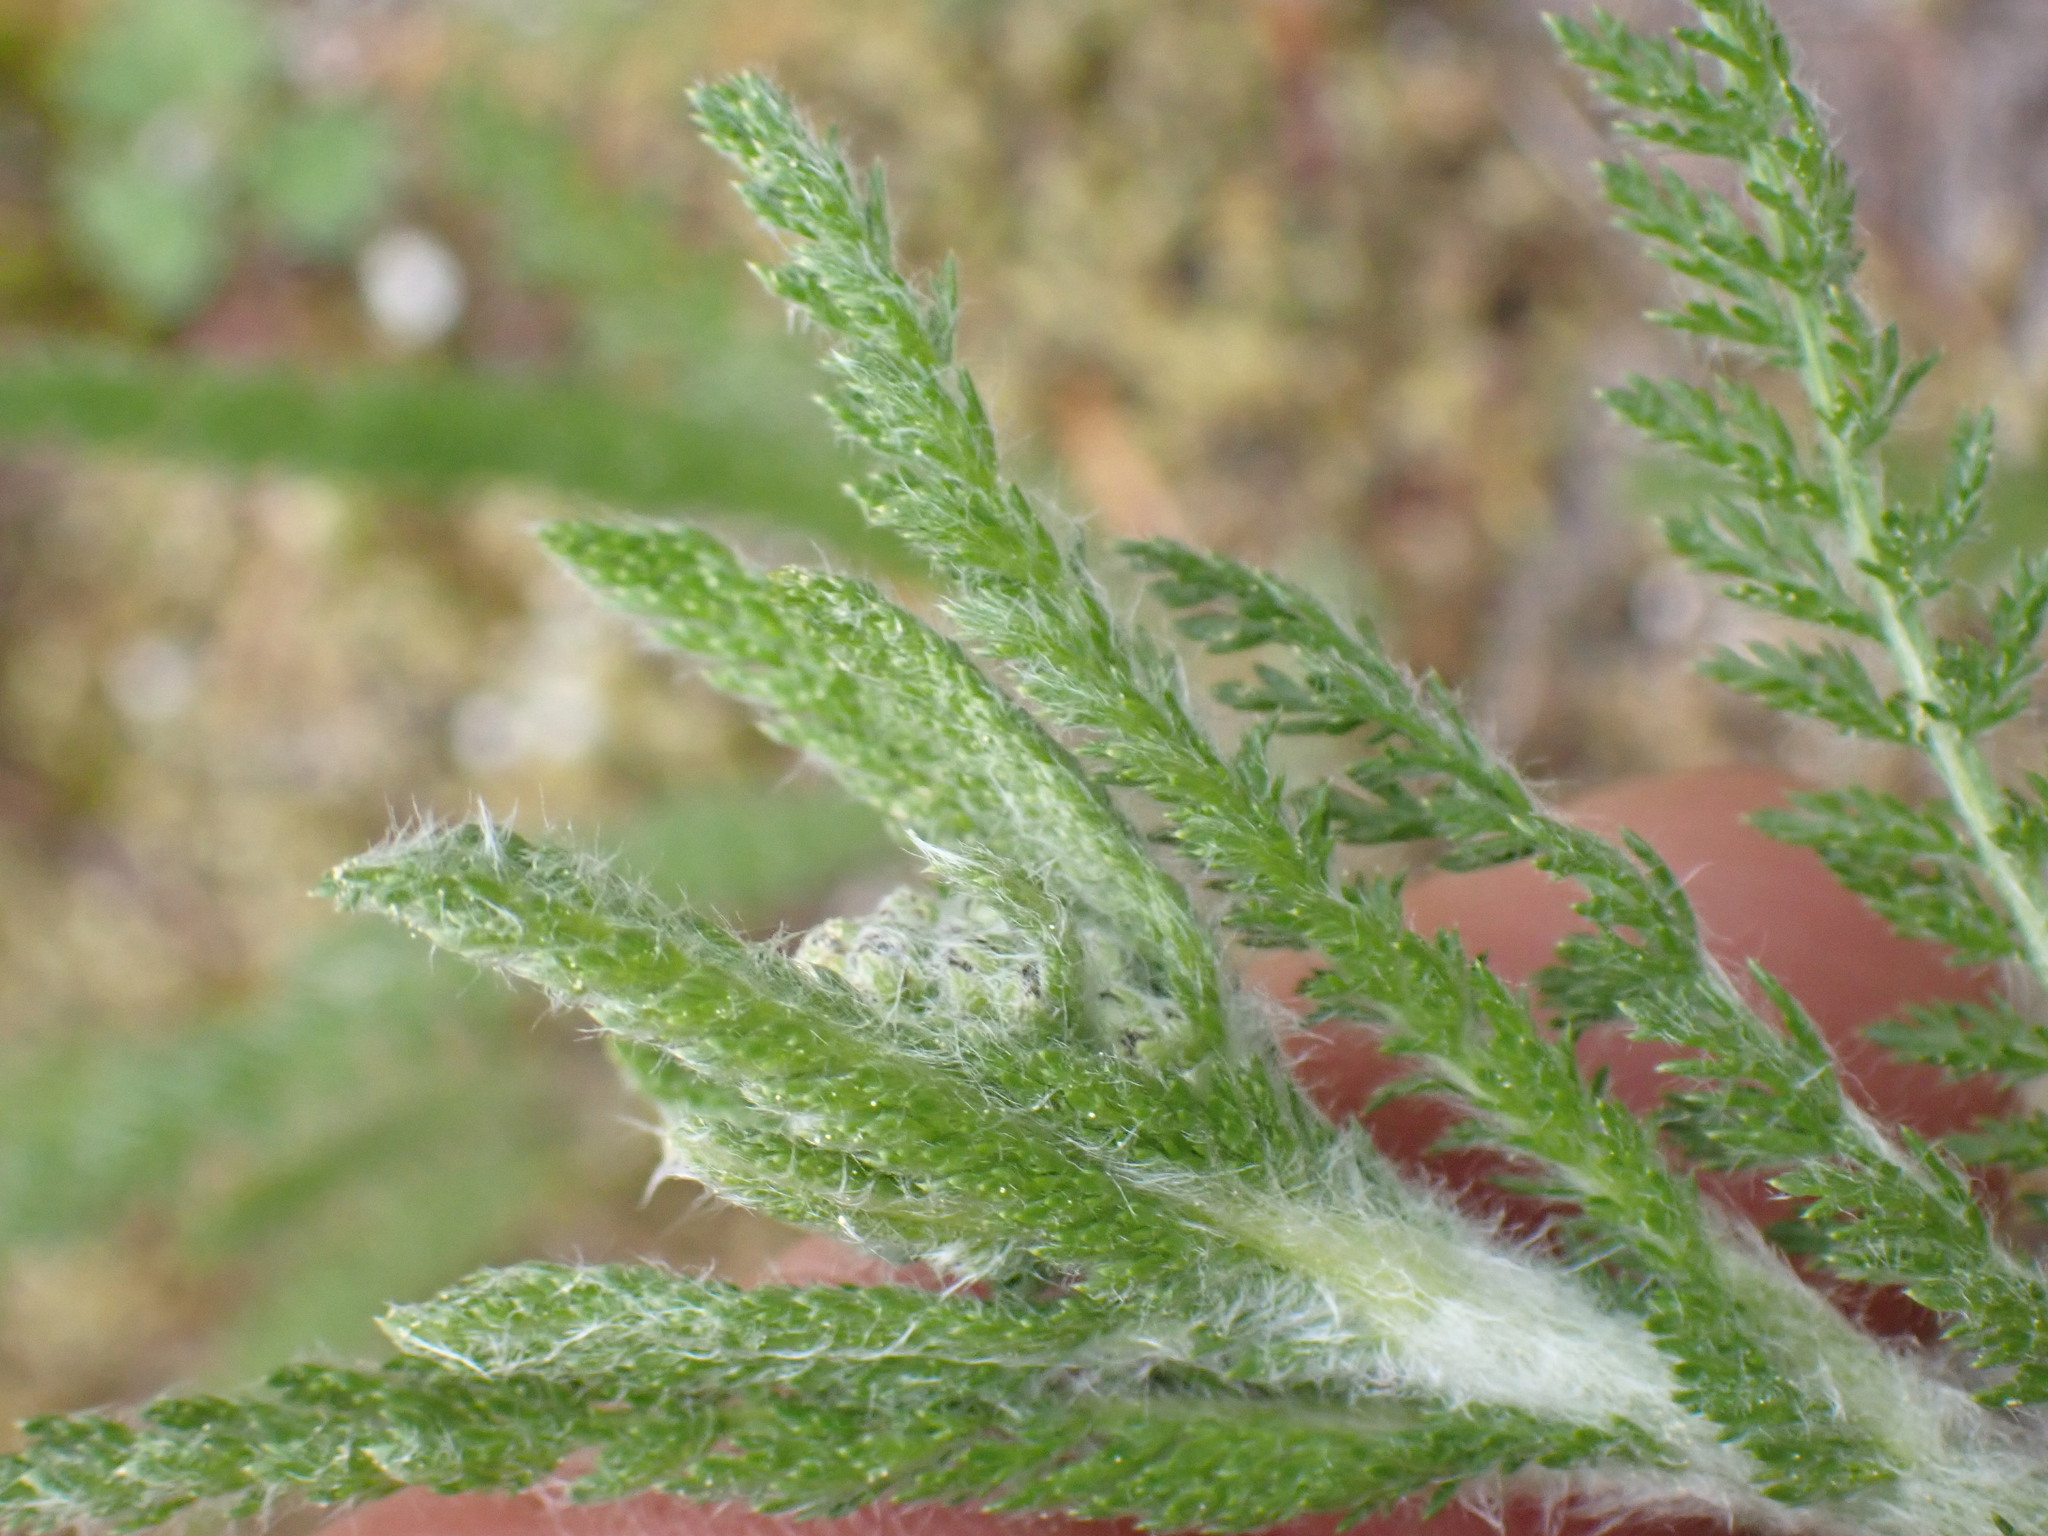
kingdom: Plantae
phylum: Tracheophyta
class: Magnoliopsida
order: Asterales
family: Asteraceae
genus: Achillea
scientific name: Achillea millefolium
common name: Yarrow
